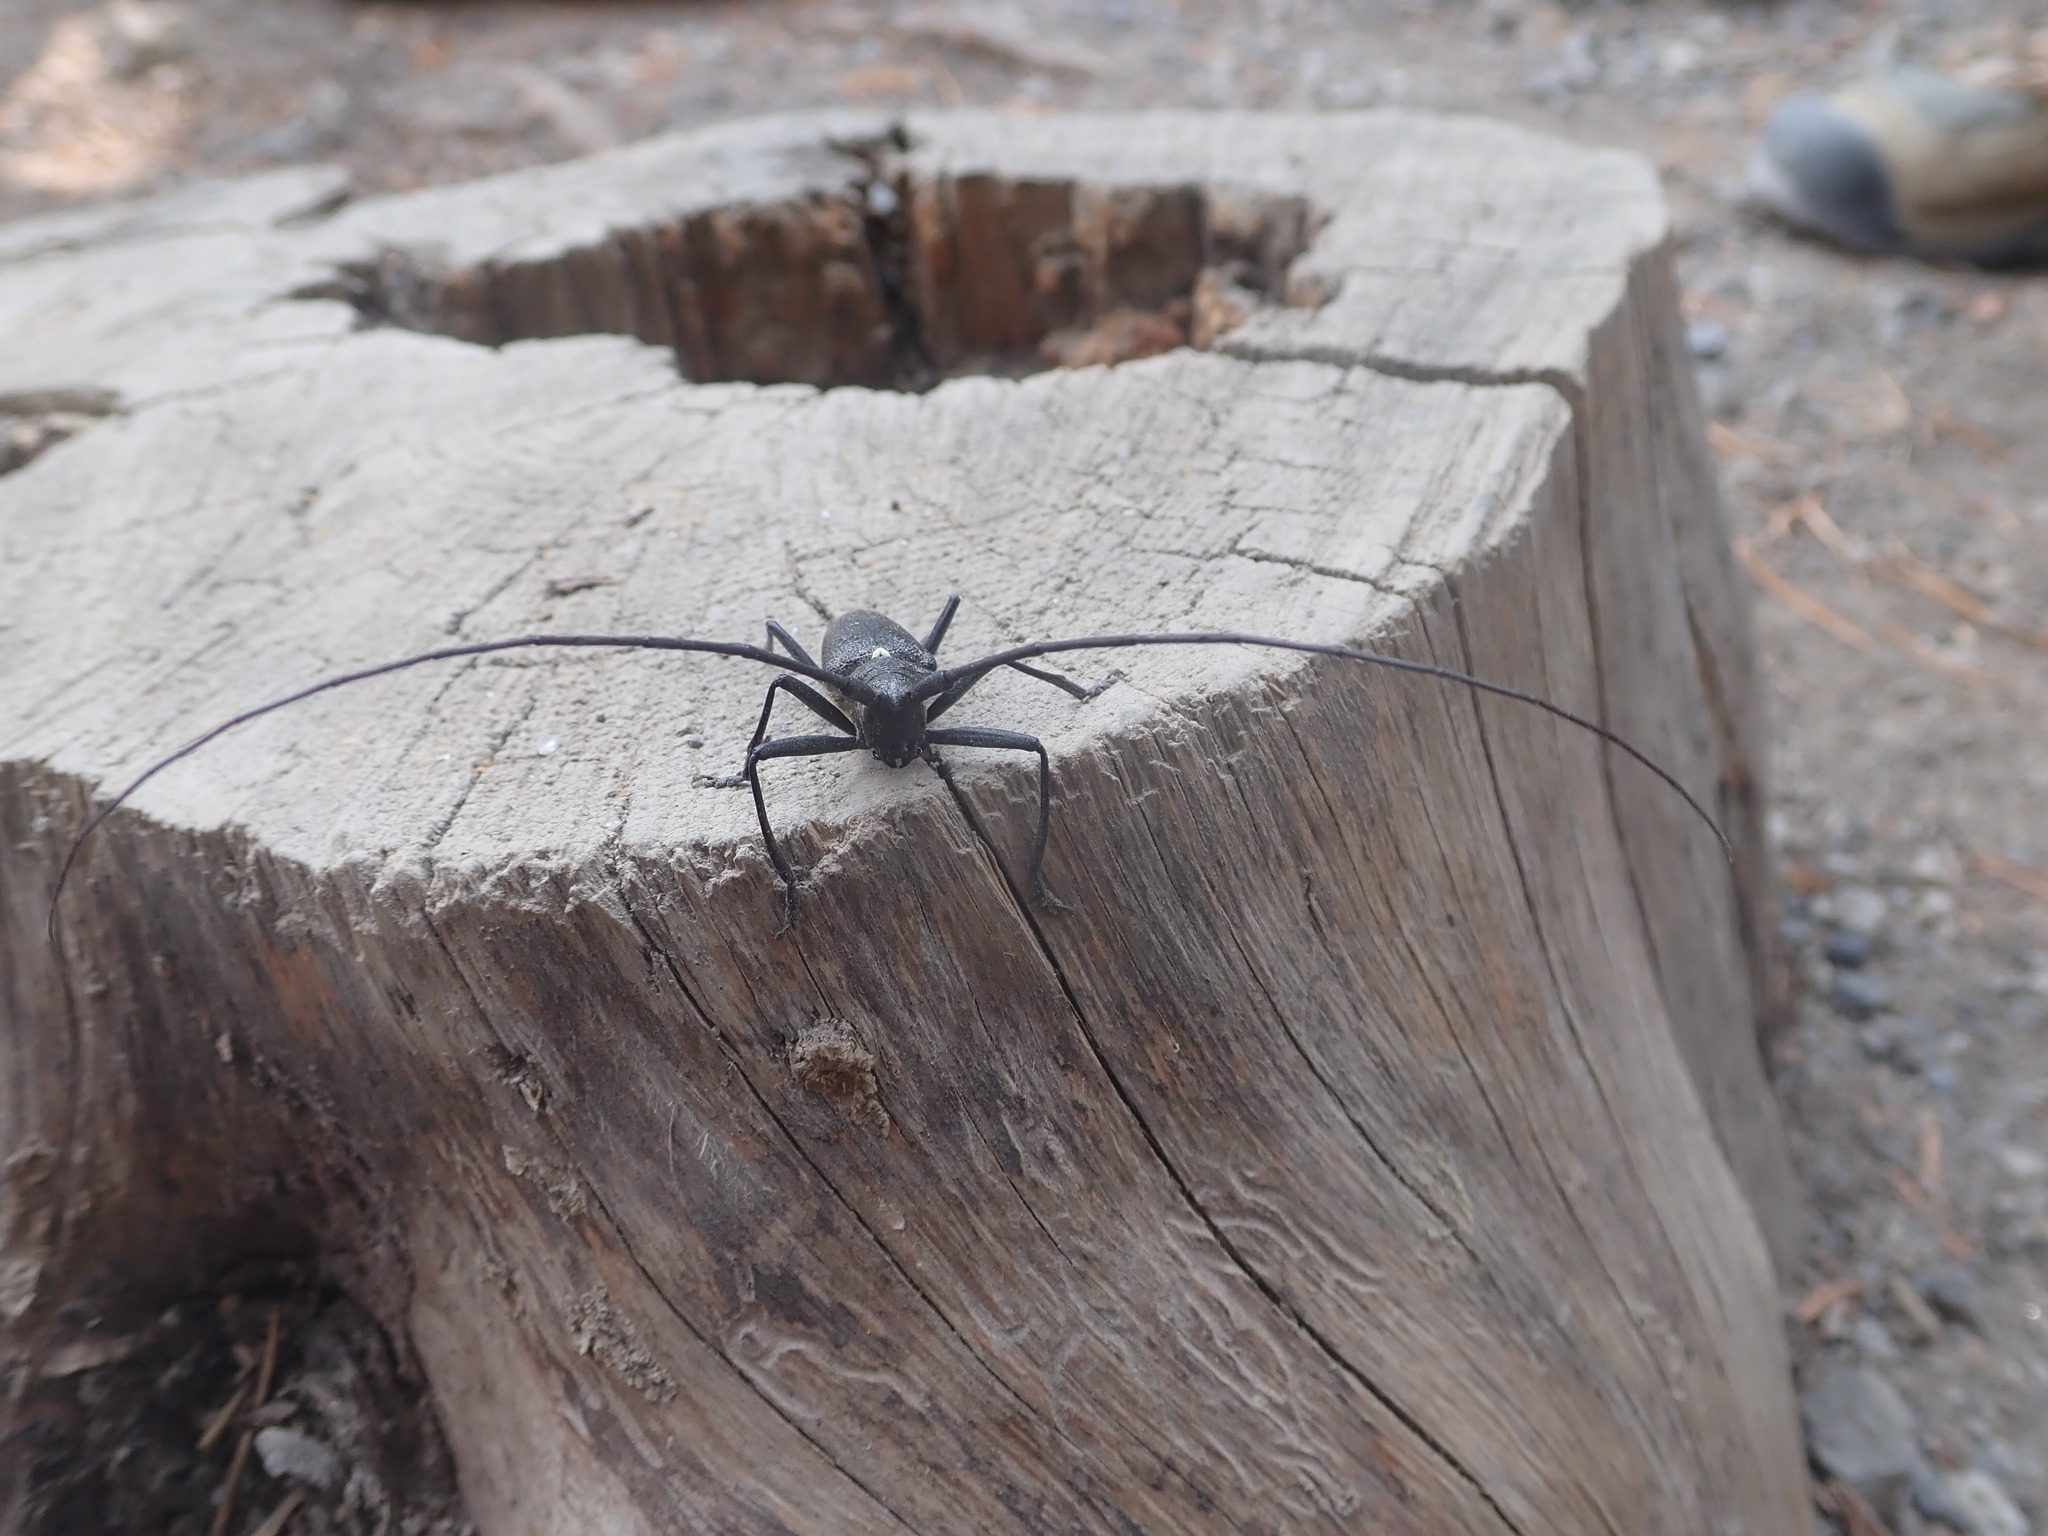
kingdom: Animalia
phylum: Arthropoda
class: Insecta
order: Coleoptera
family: Cerambycidae
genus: Monochamus
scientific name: Monochamus scutellatus
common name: White-spotted sawyer beetle
